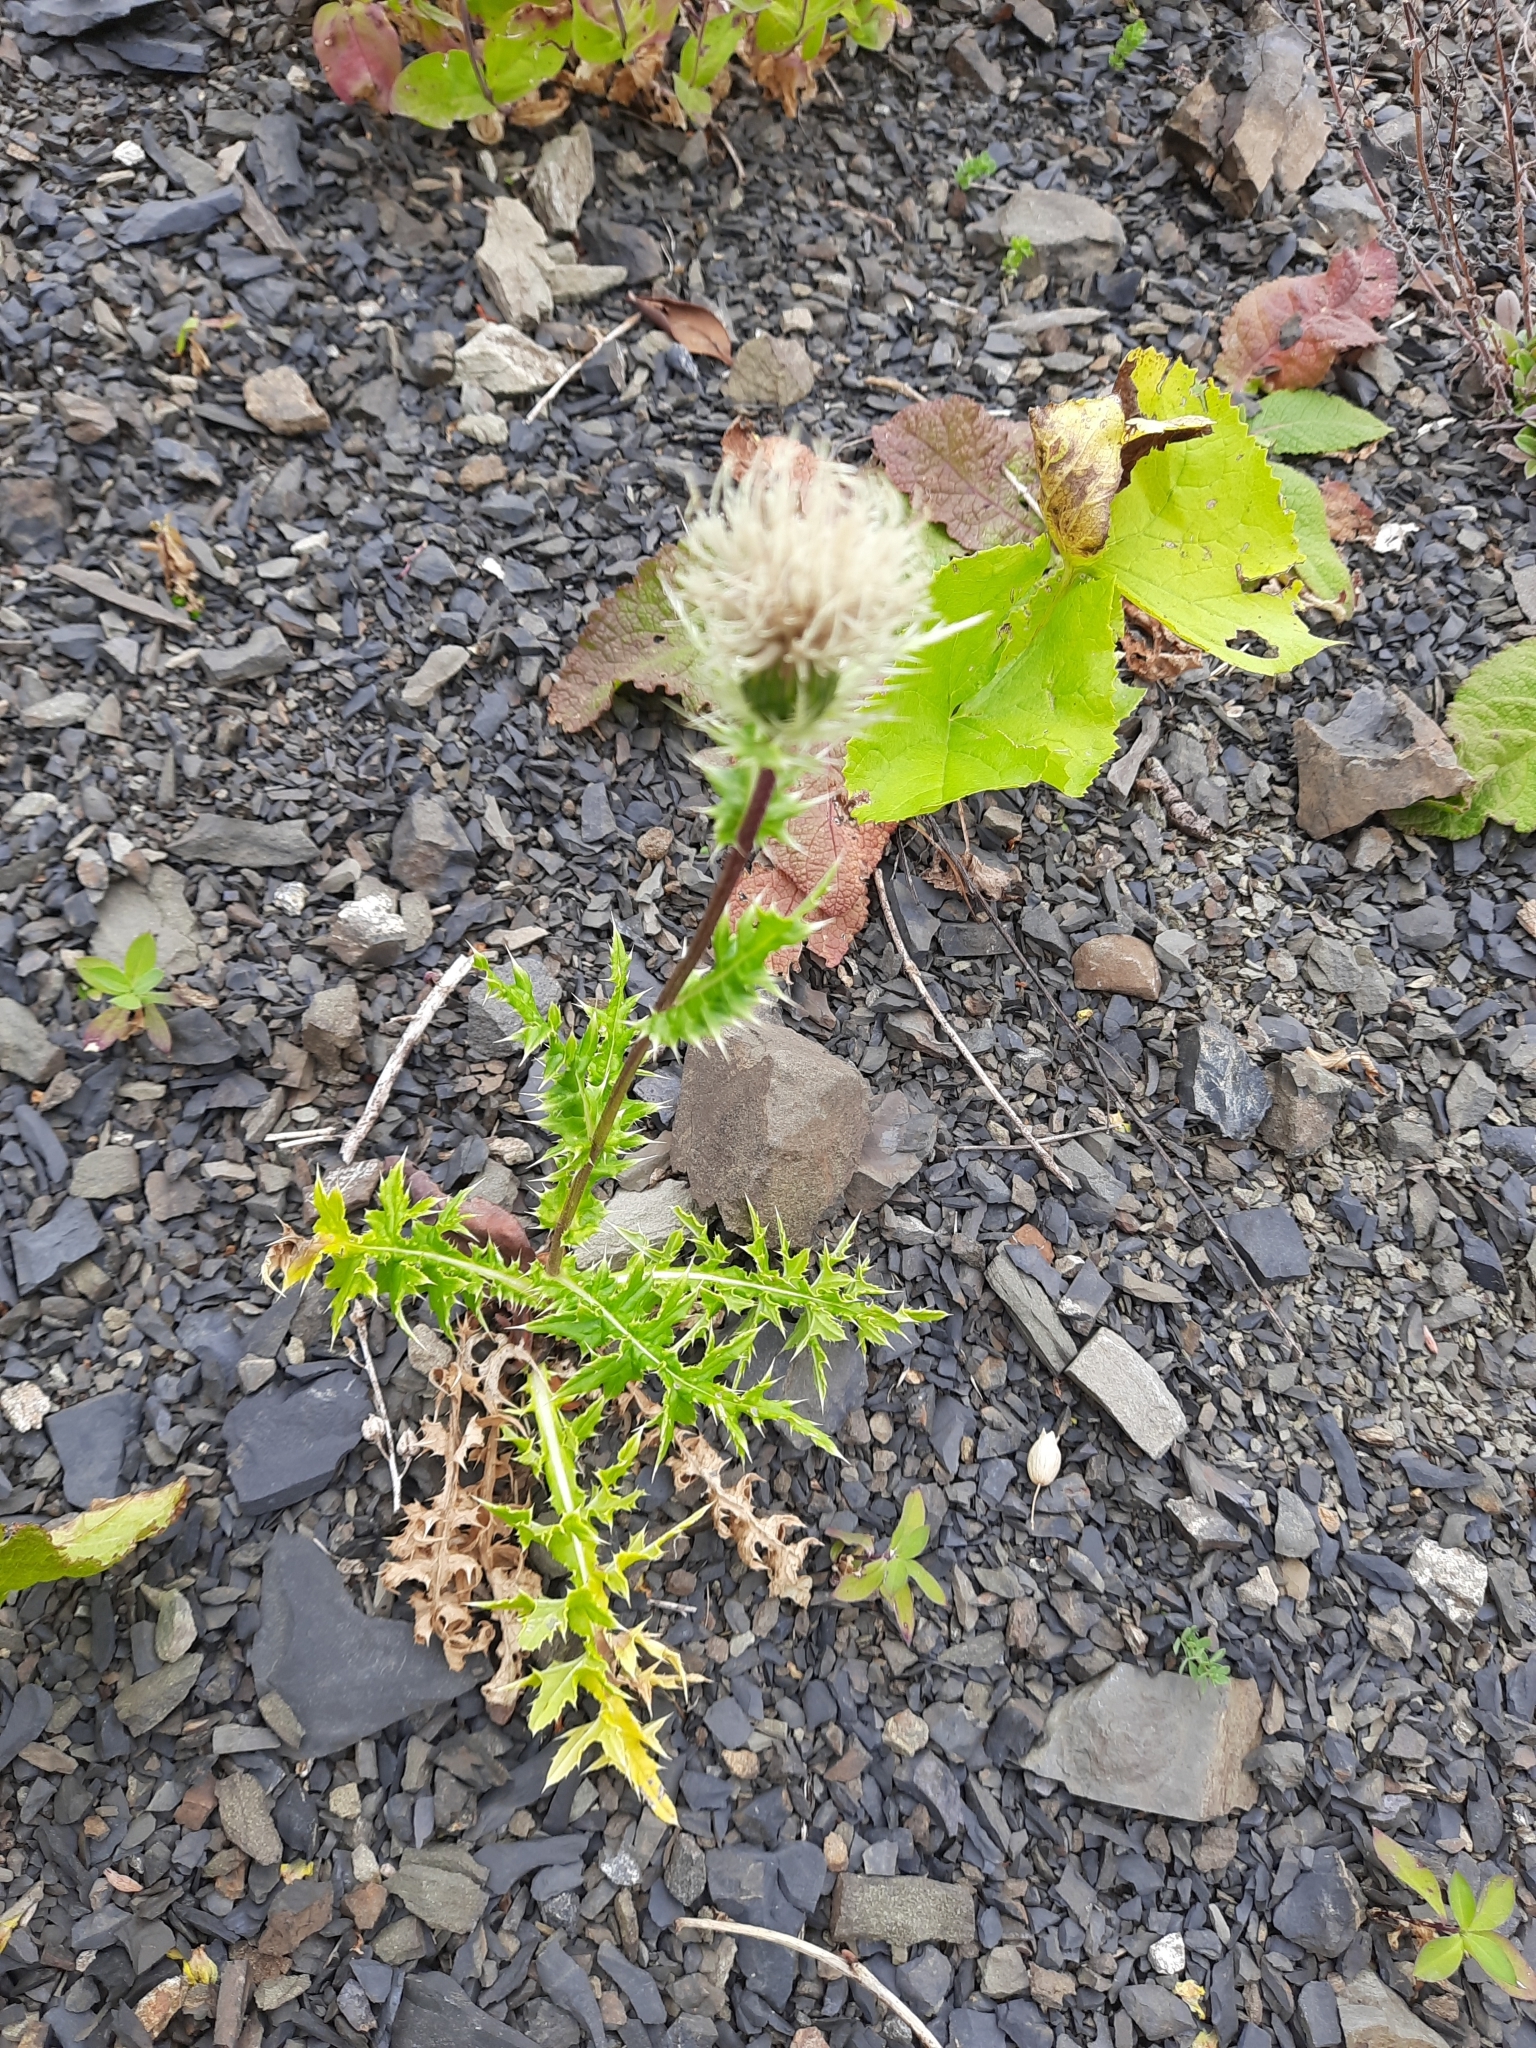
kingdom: Plantae
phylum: Tracheophyta
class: Magnoliopsida
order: Asterales
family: Asteraceae
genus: Cirsium
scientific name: Cirsium obvallatum
